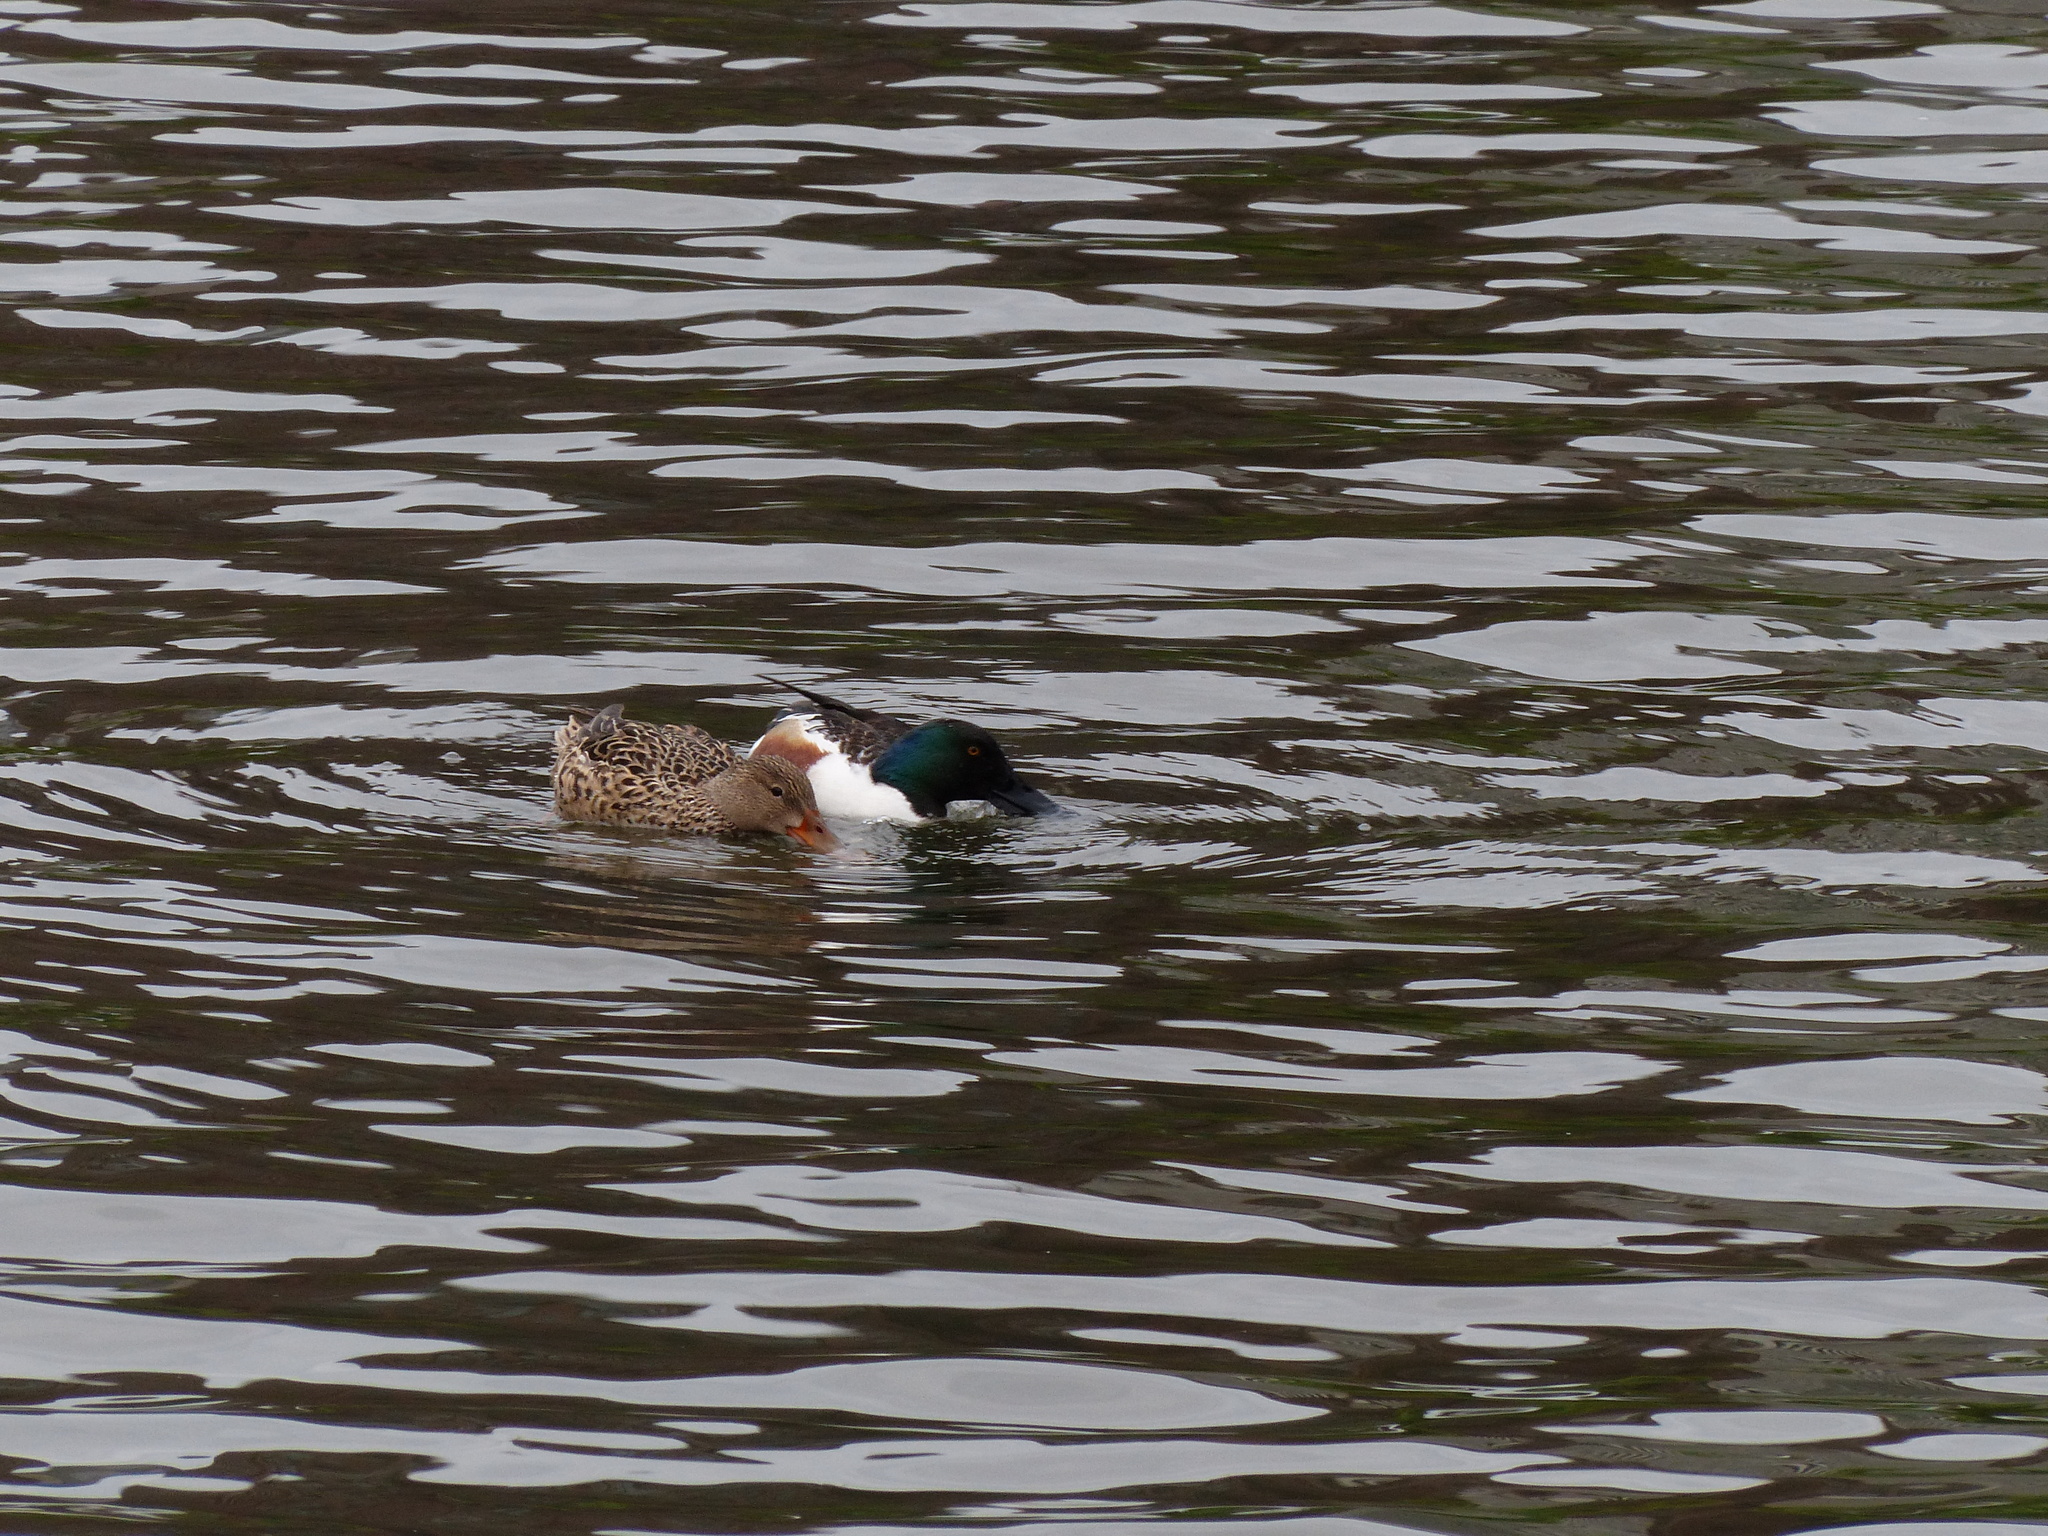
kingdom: Animalia
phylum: Chordata
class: Aves
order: Anseriformes
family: Anatidae
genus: Spatula
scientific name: Spatula clypeata
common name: Northern shoveler
